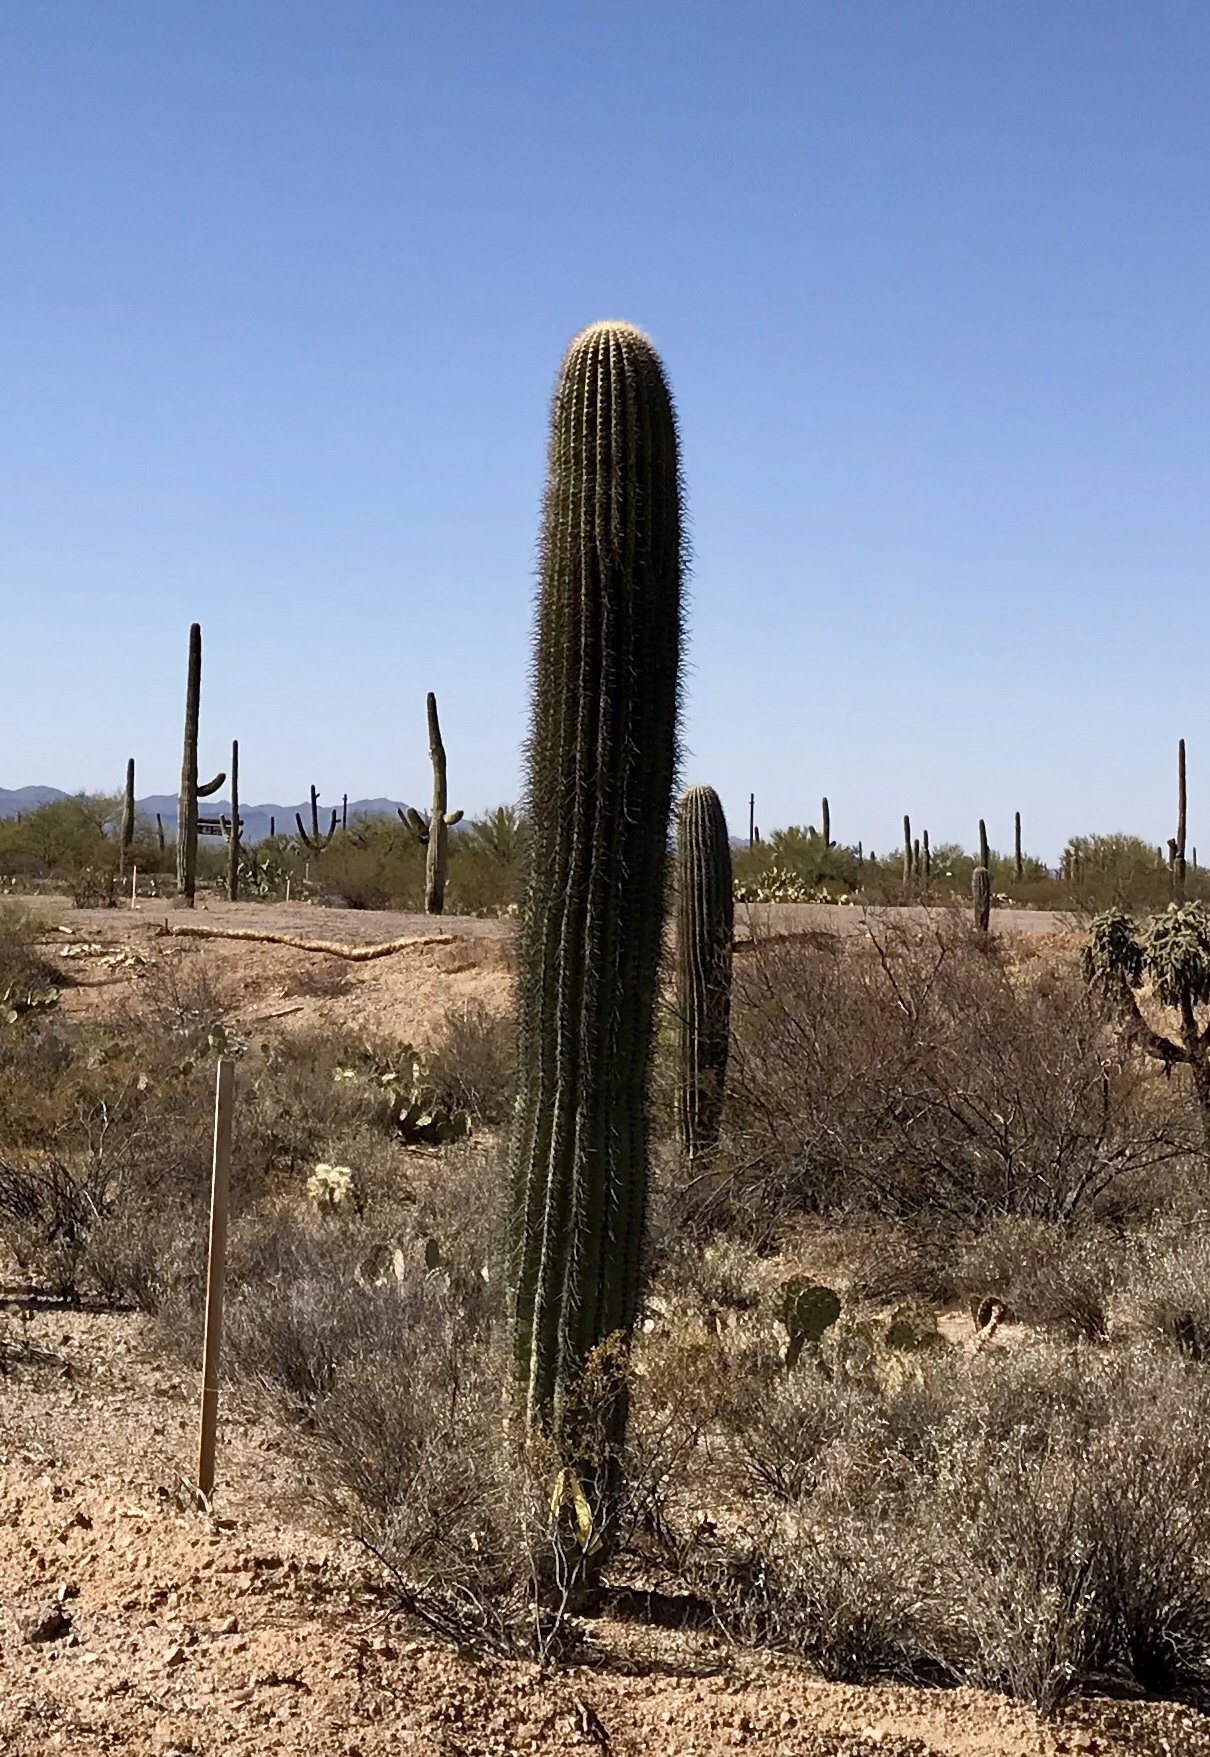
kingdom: Plantae
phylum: Tracheophyta
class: Magnoliopsida
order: Caryophyllales
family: Cactaceae
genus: Carnegiea
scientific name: Carnegiea gigantea
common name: Saguaro
